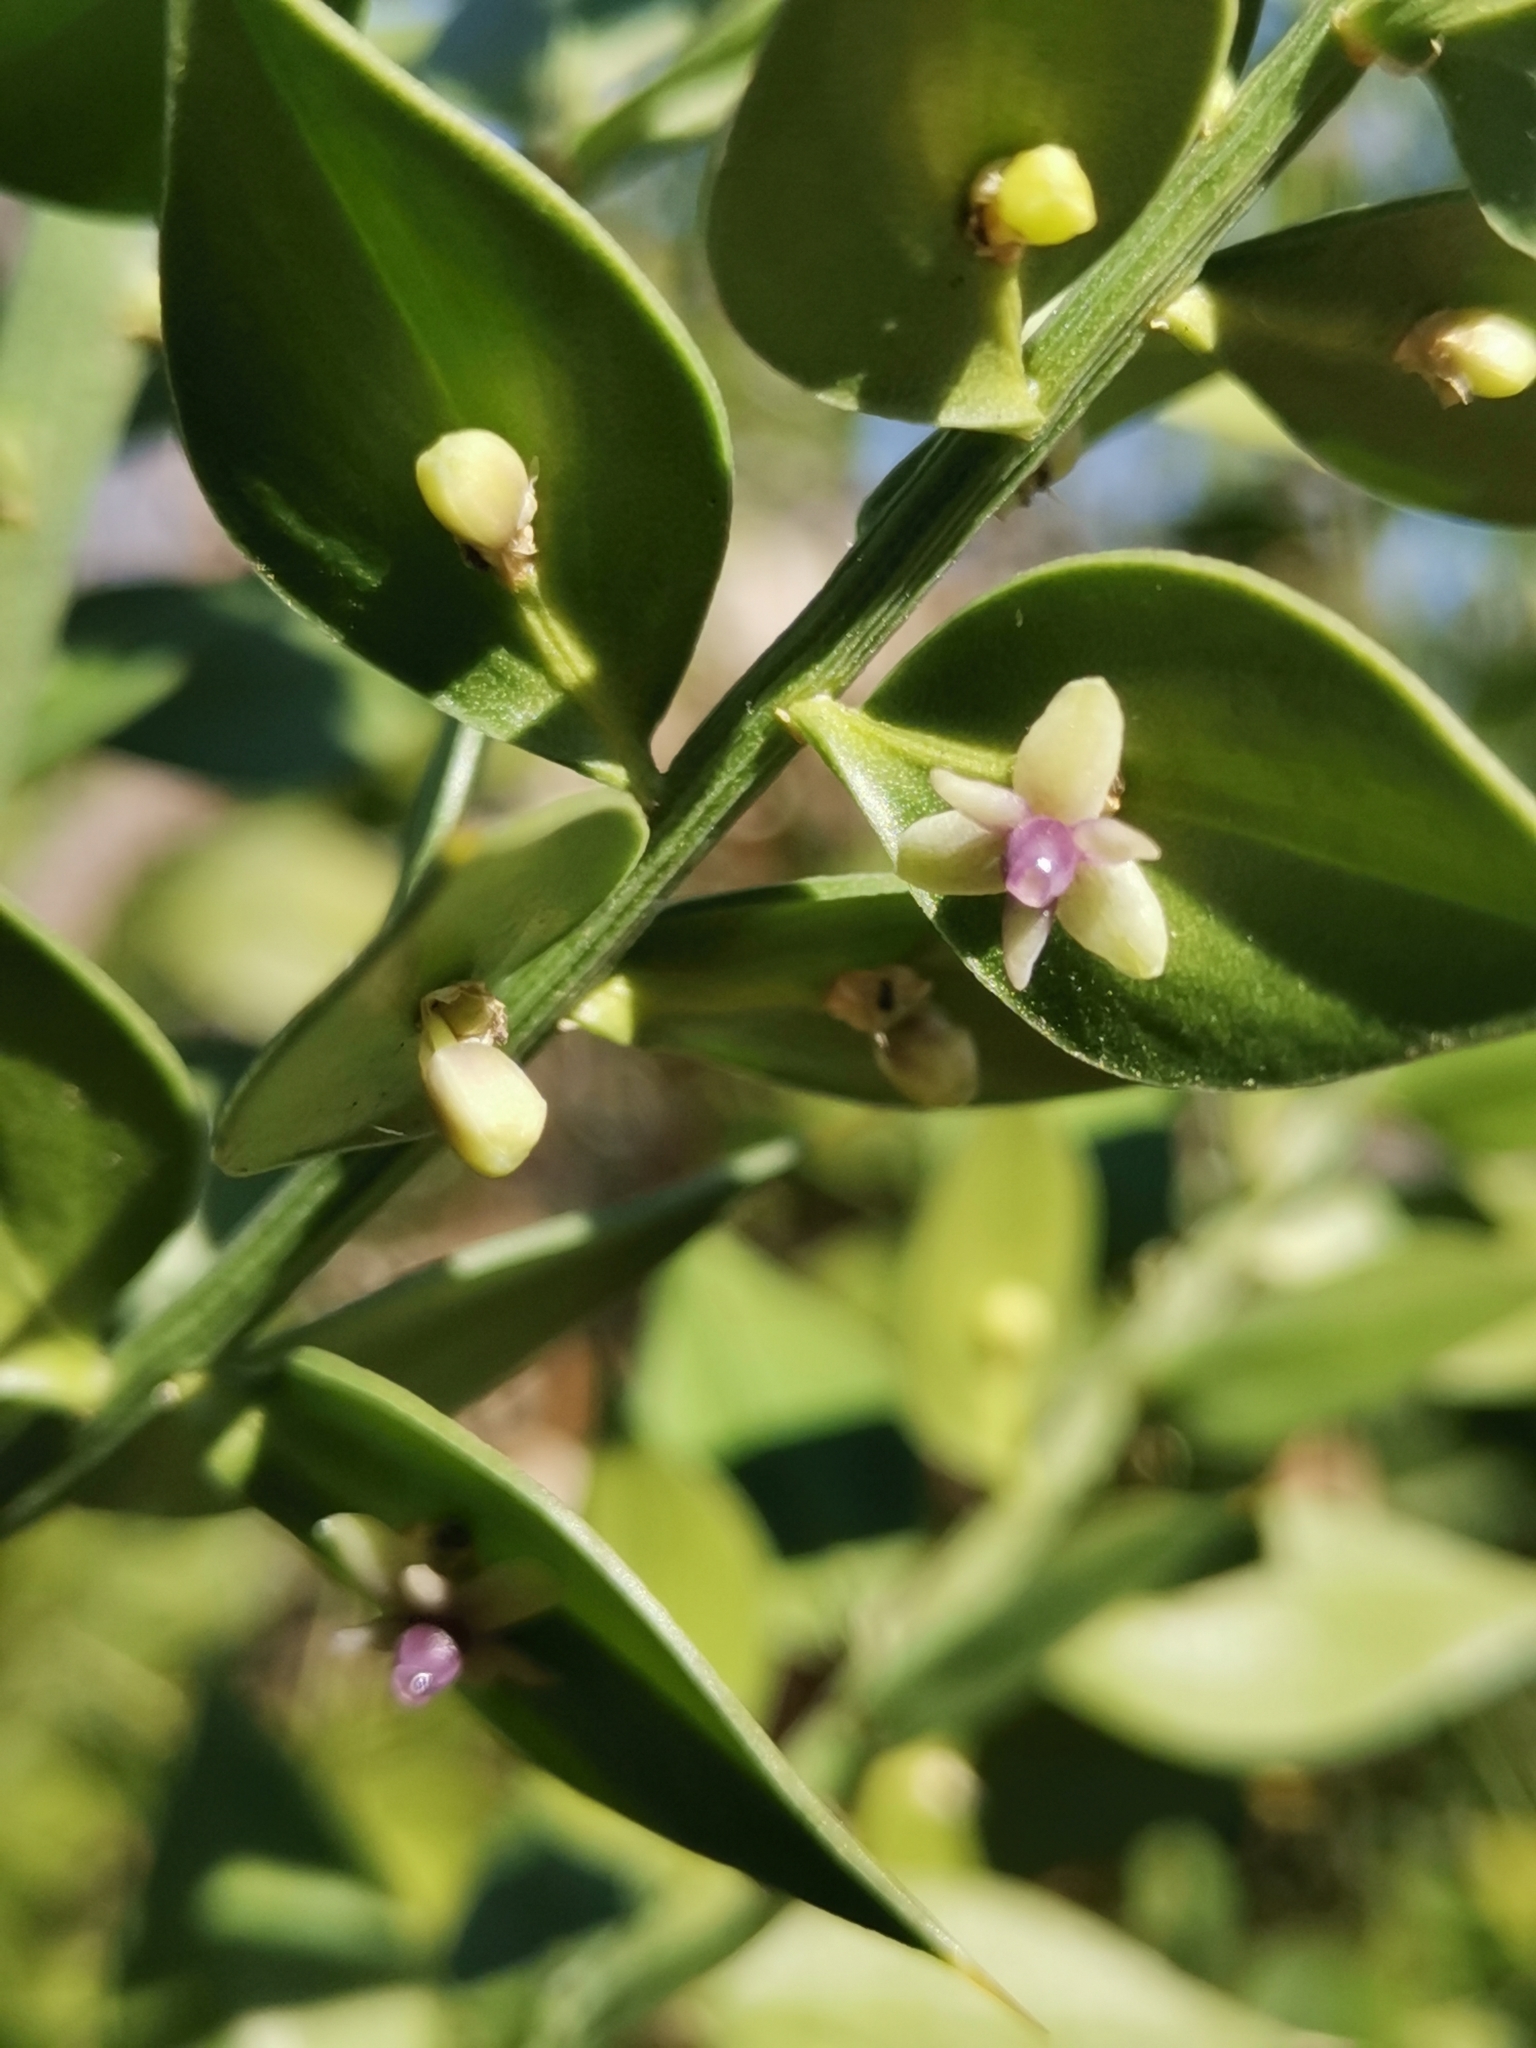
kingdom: Plantae
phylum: Tracheophyta
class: Liliopsida
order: Asparagales
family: Asparagaceae
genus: Ruscus
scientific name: Ruscus aculeatus
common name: Butcher's-broom
